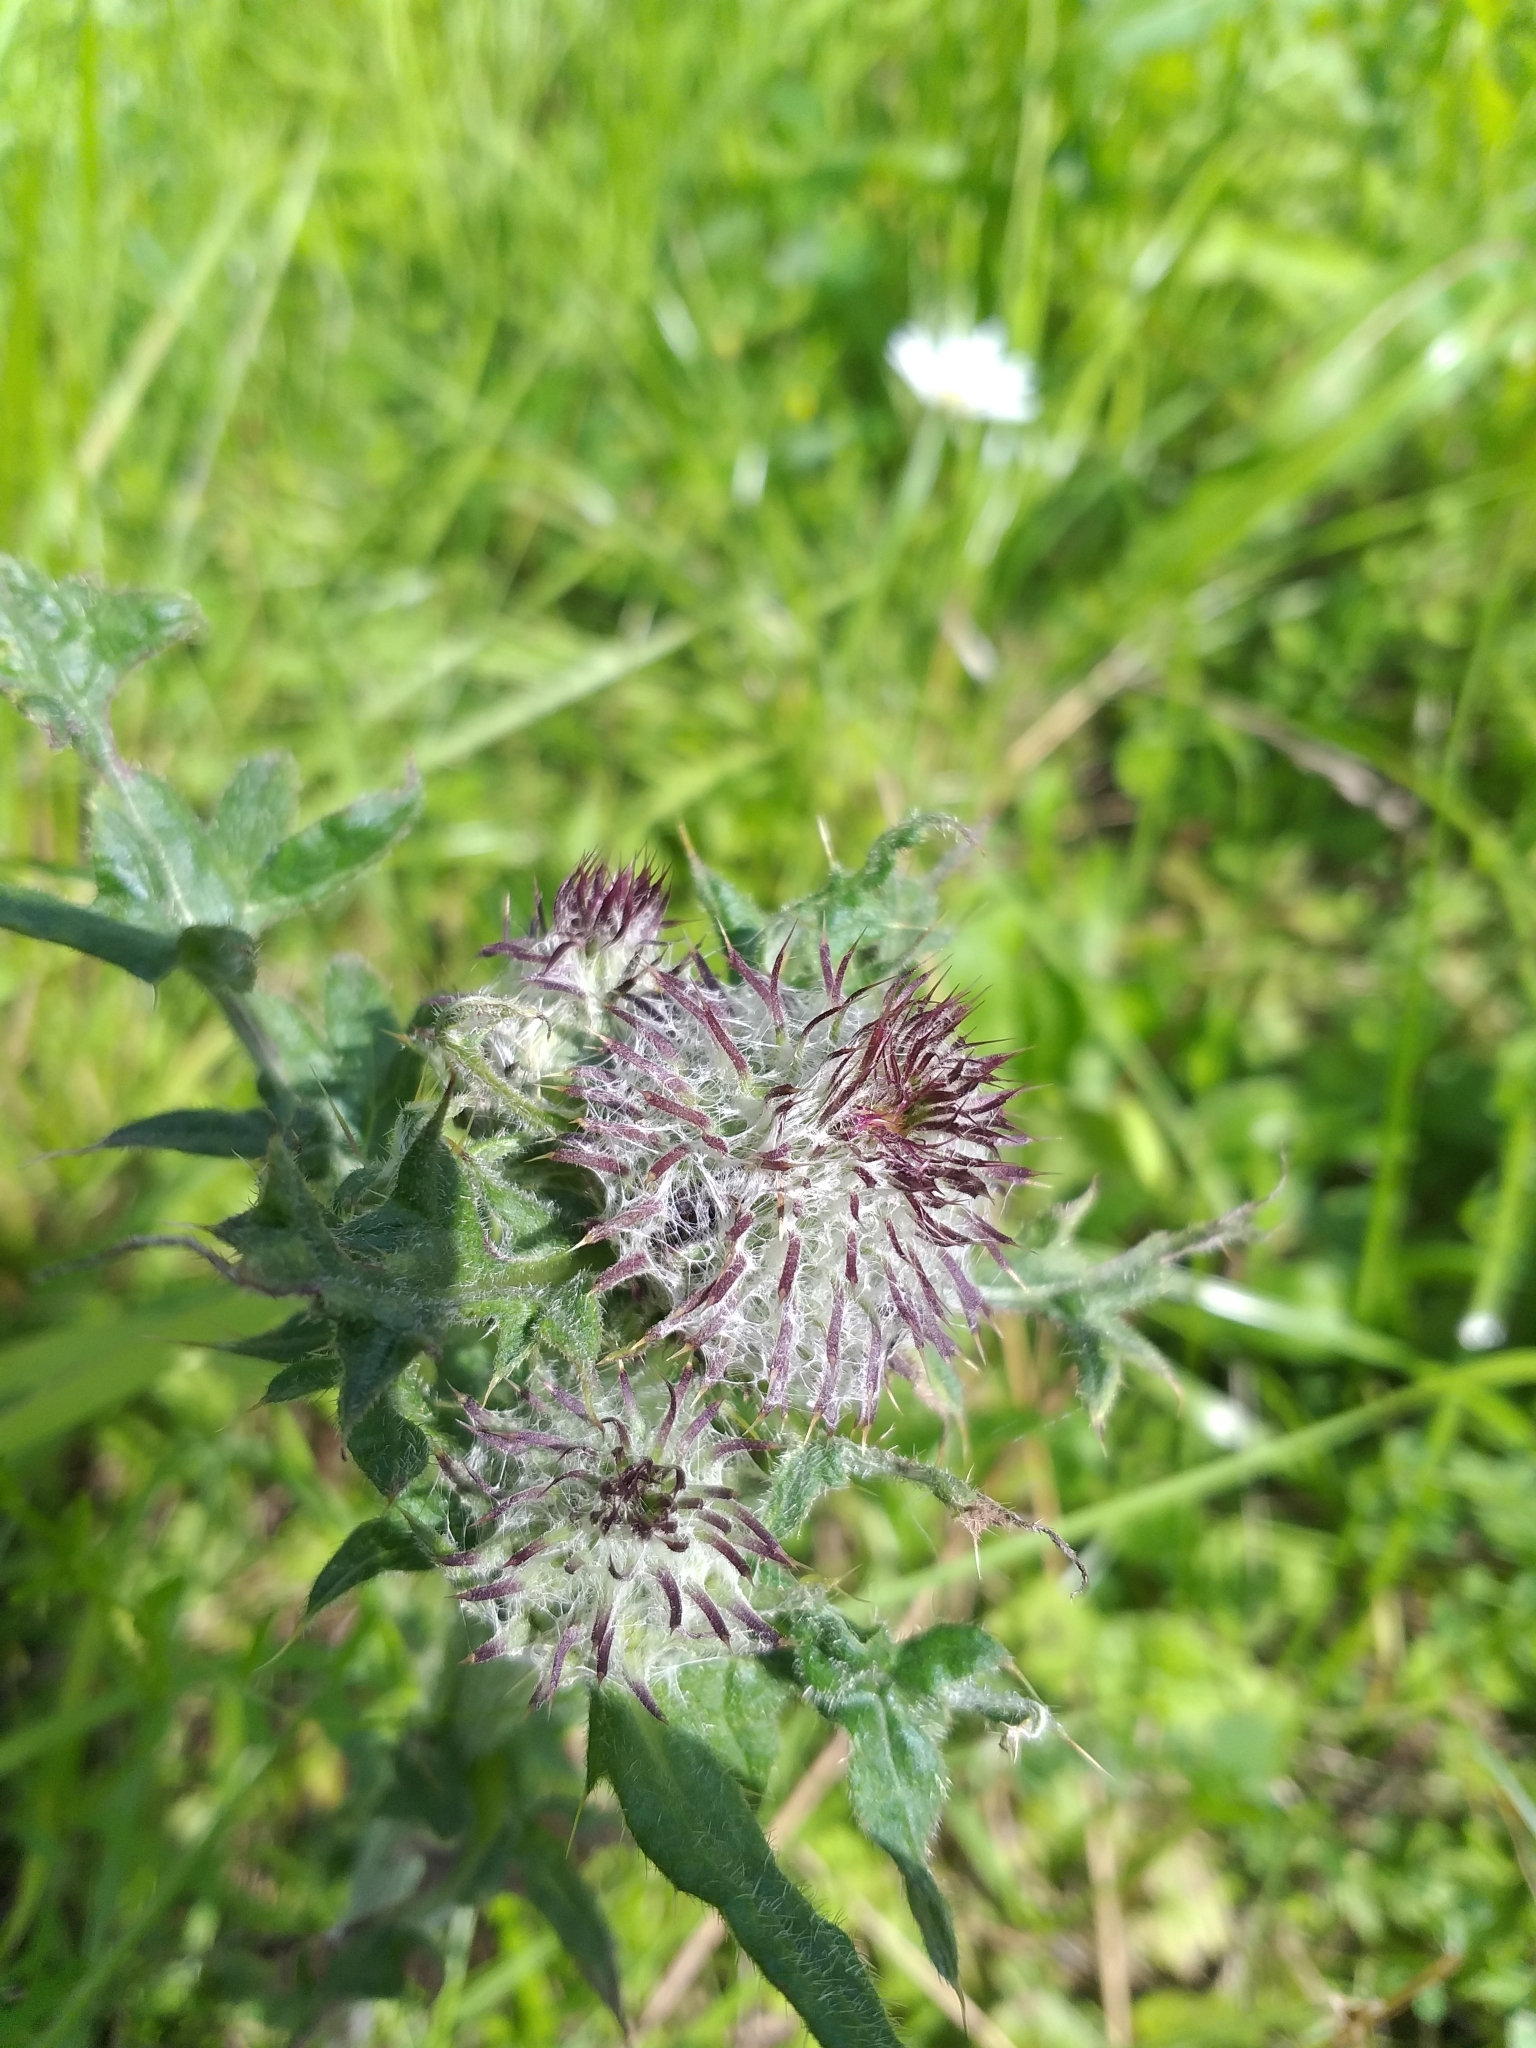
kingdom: Plantae
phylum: Tracheophyta
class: Magnoliopsida
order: Asterales
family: Asteraceae
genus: Lophiolepis
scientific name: Lophiolepis decussata
